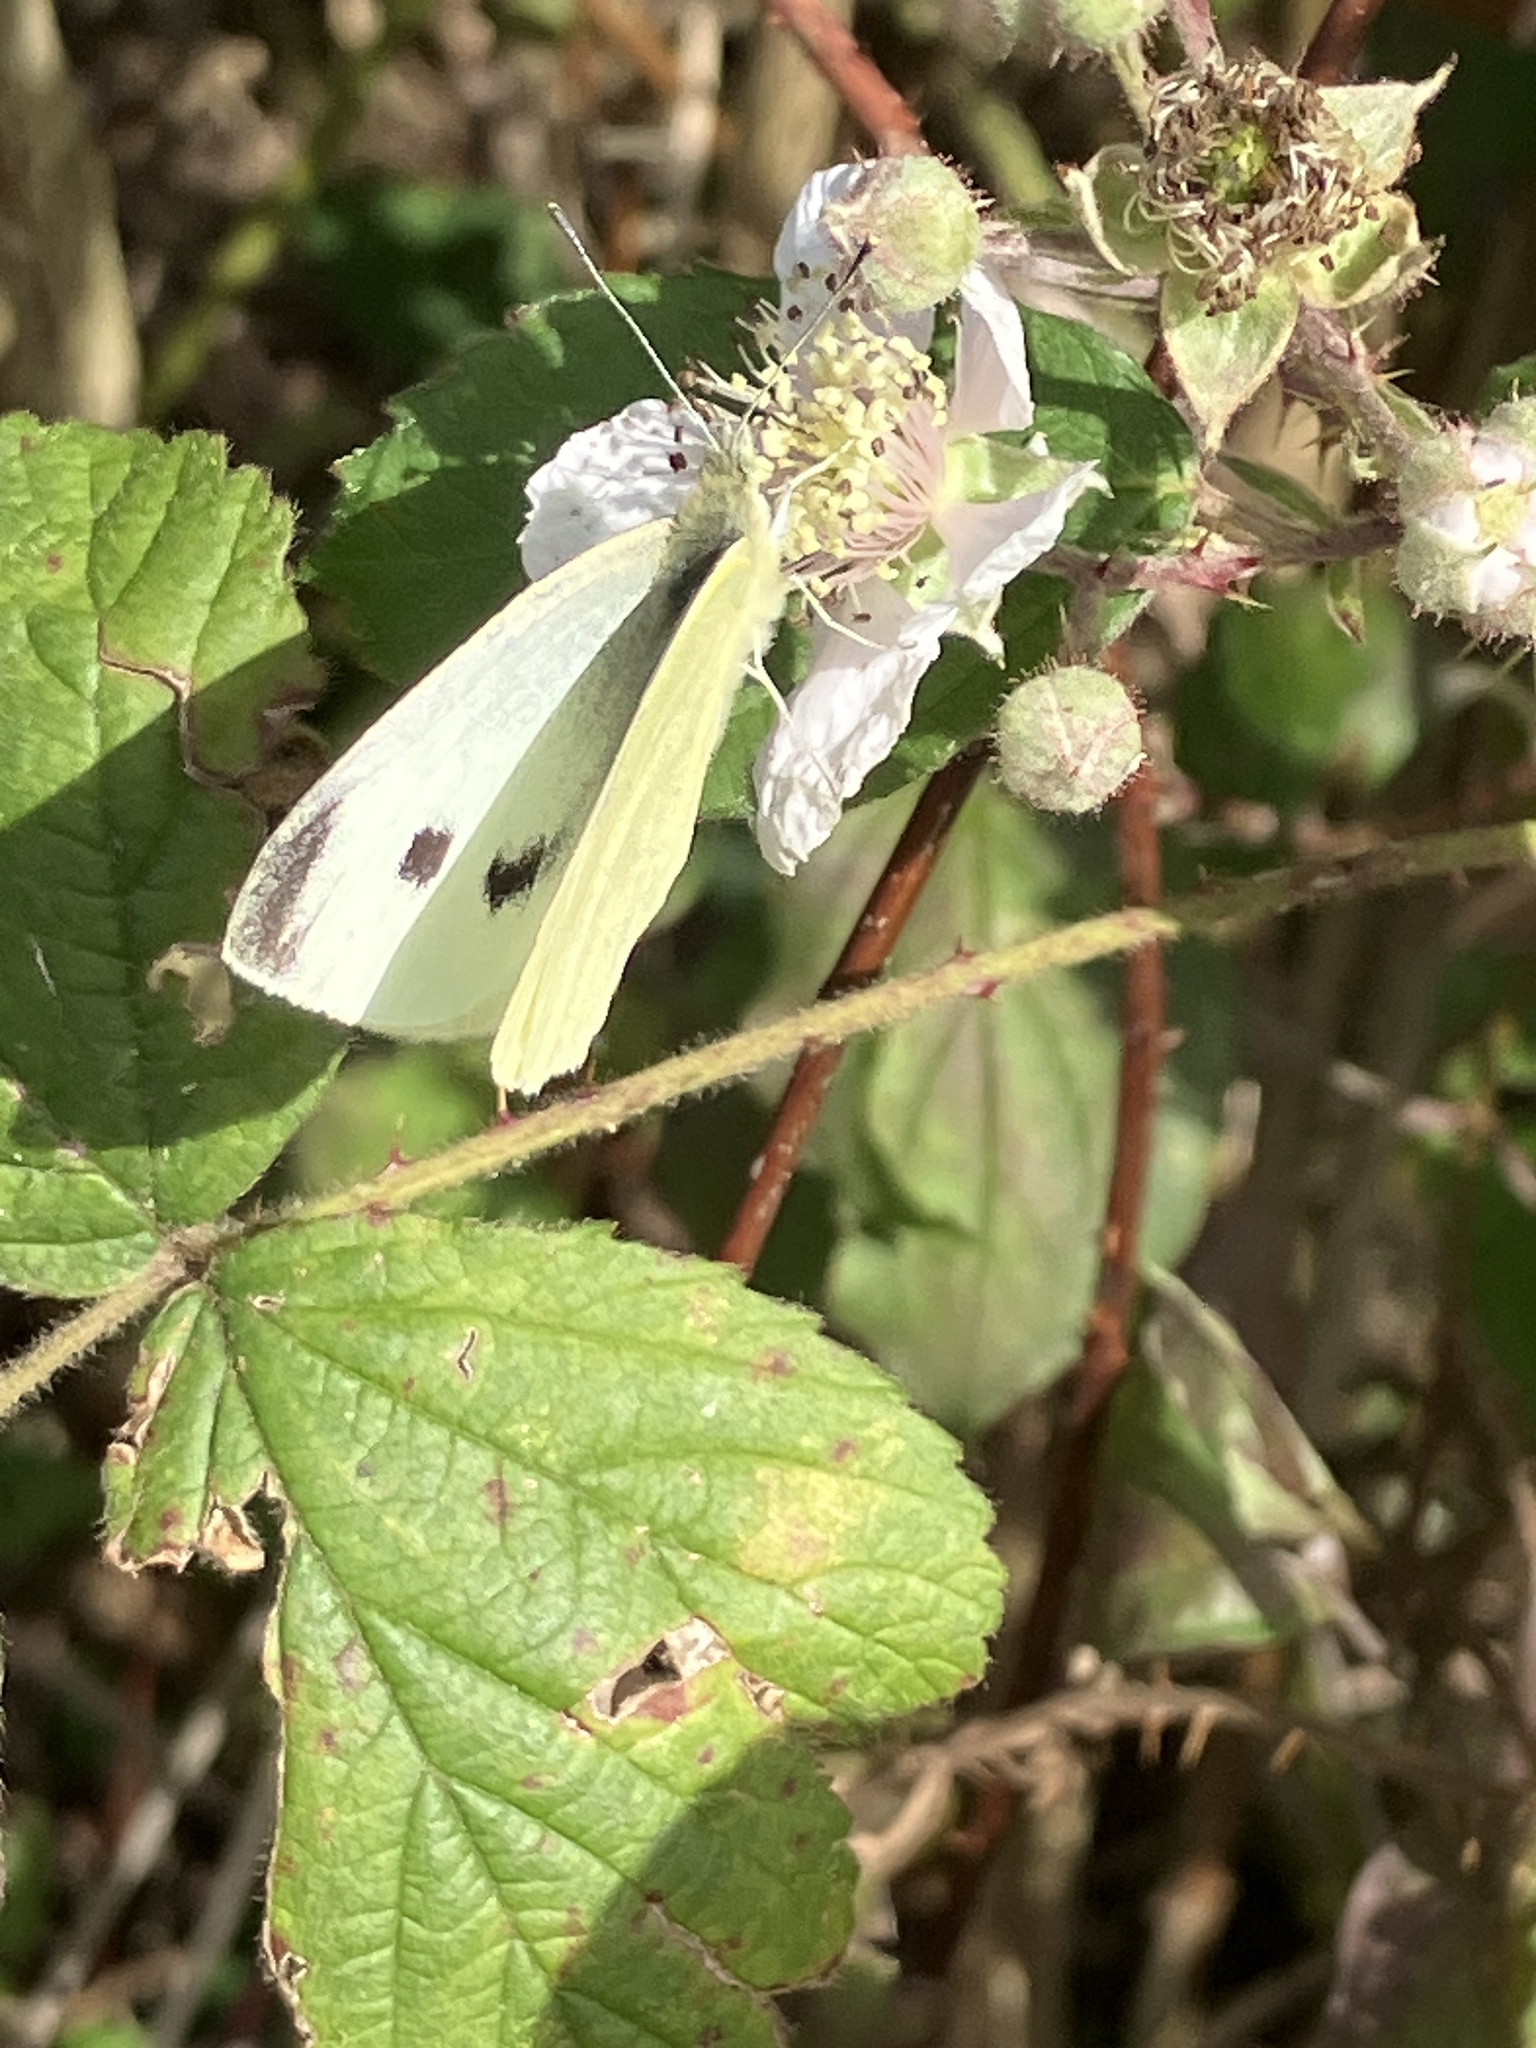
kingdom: Animalia
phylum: Arthropoda
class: Insecta
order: Lepidoptera
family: Pieridae
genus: Pieris
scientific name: Pieris rapae
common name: Small white
